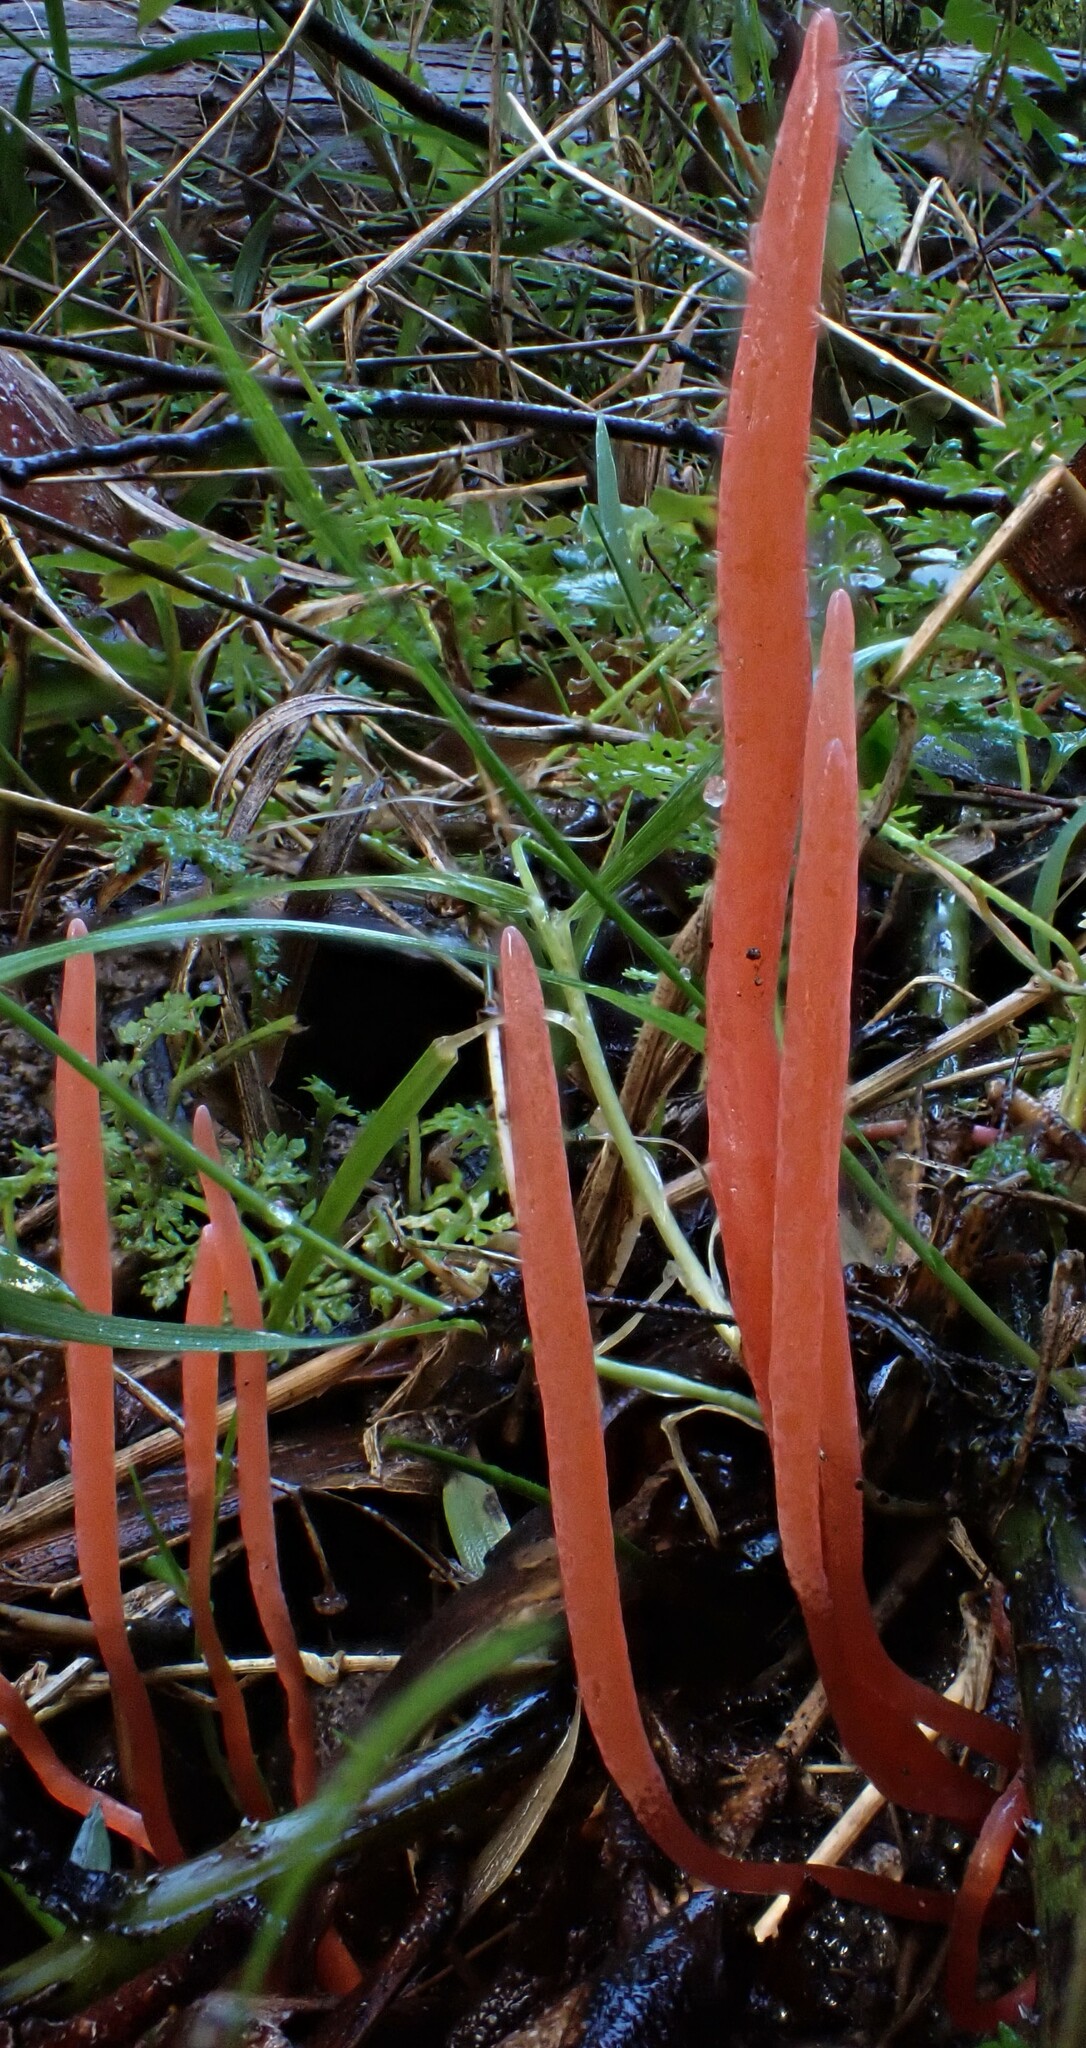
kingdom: Fungi
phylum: Basidiomycota
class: Agaricomycetes
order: Agaricales
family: Clavariaceae
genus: Clavulinopsis
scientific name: Clavulinopsis corallinorosacea
